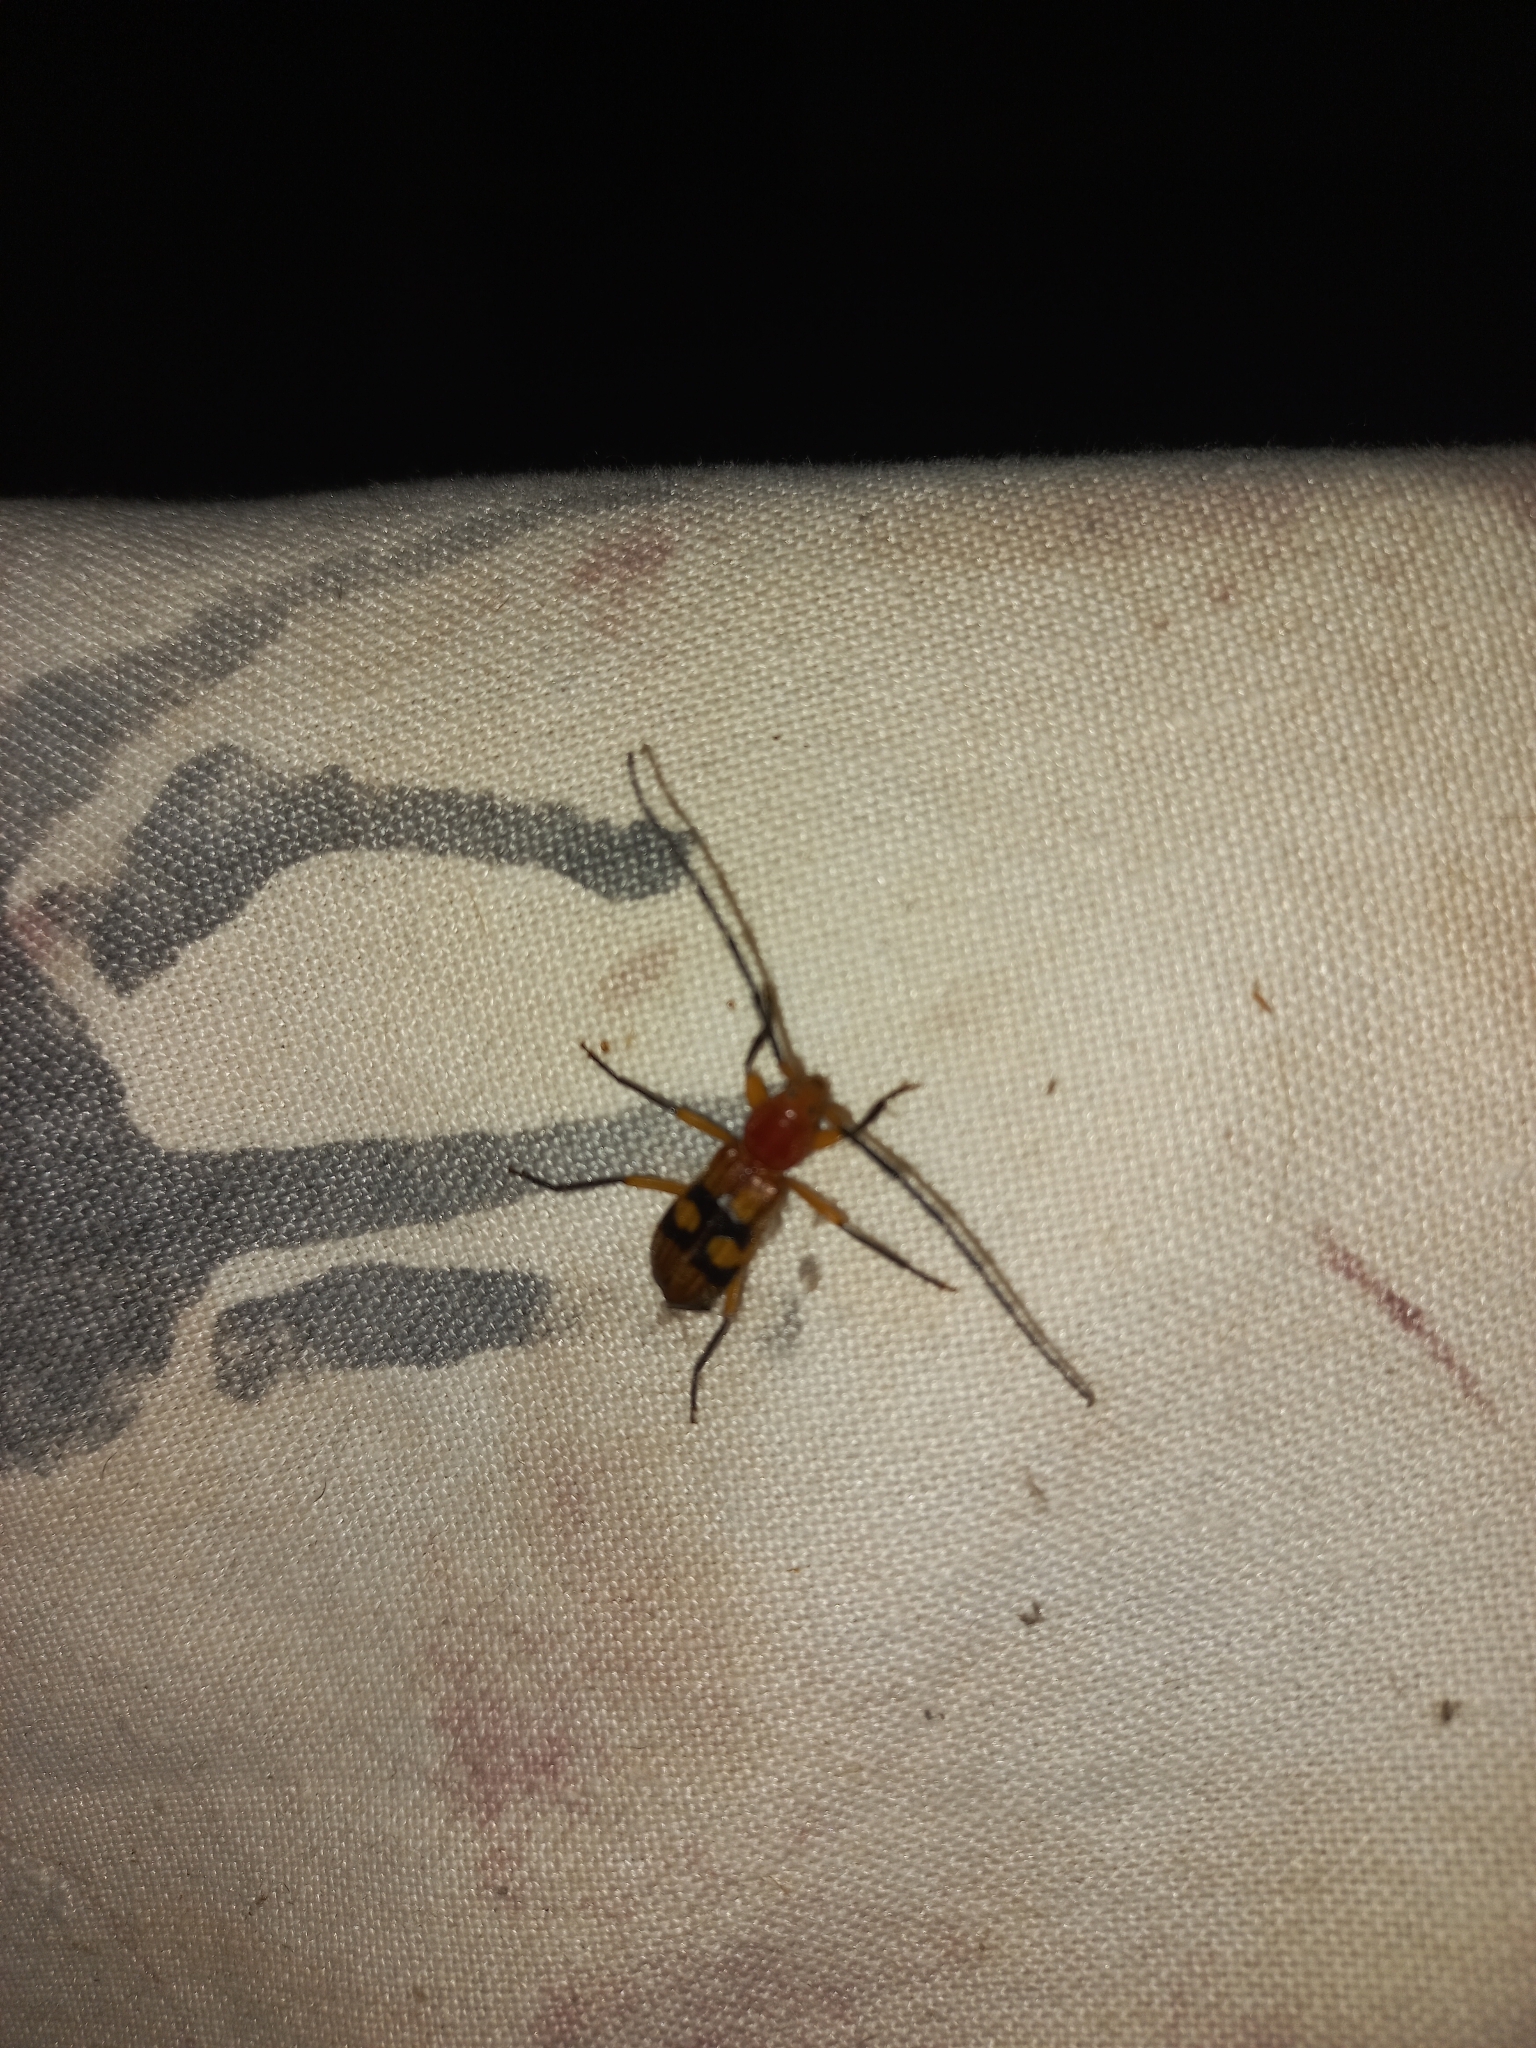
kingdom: Animalia
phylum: Arthropoda
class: Insecta
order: Coleoptera
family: Cerambycidae
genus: Coptoeme
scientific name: Coptoeme krantzi
